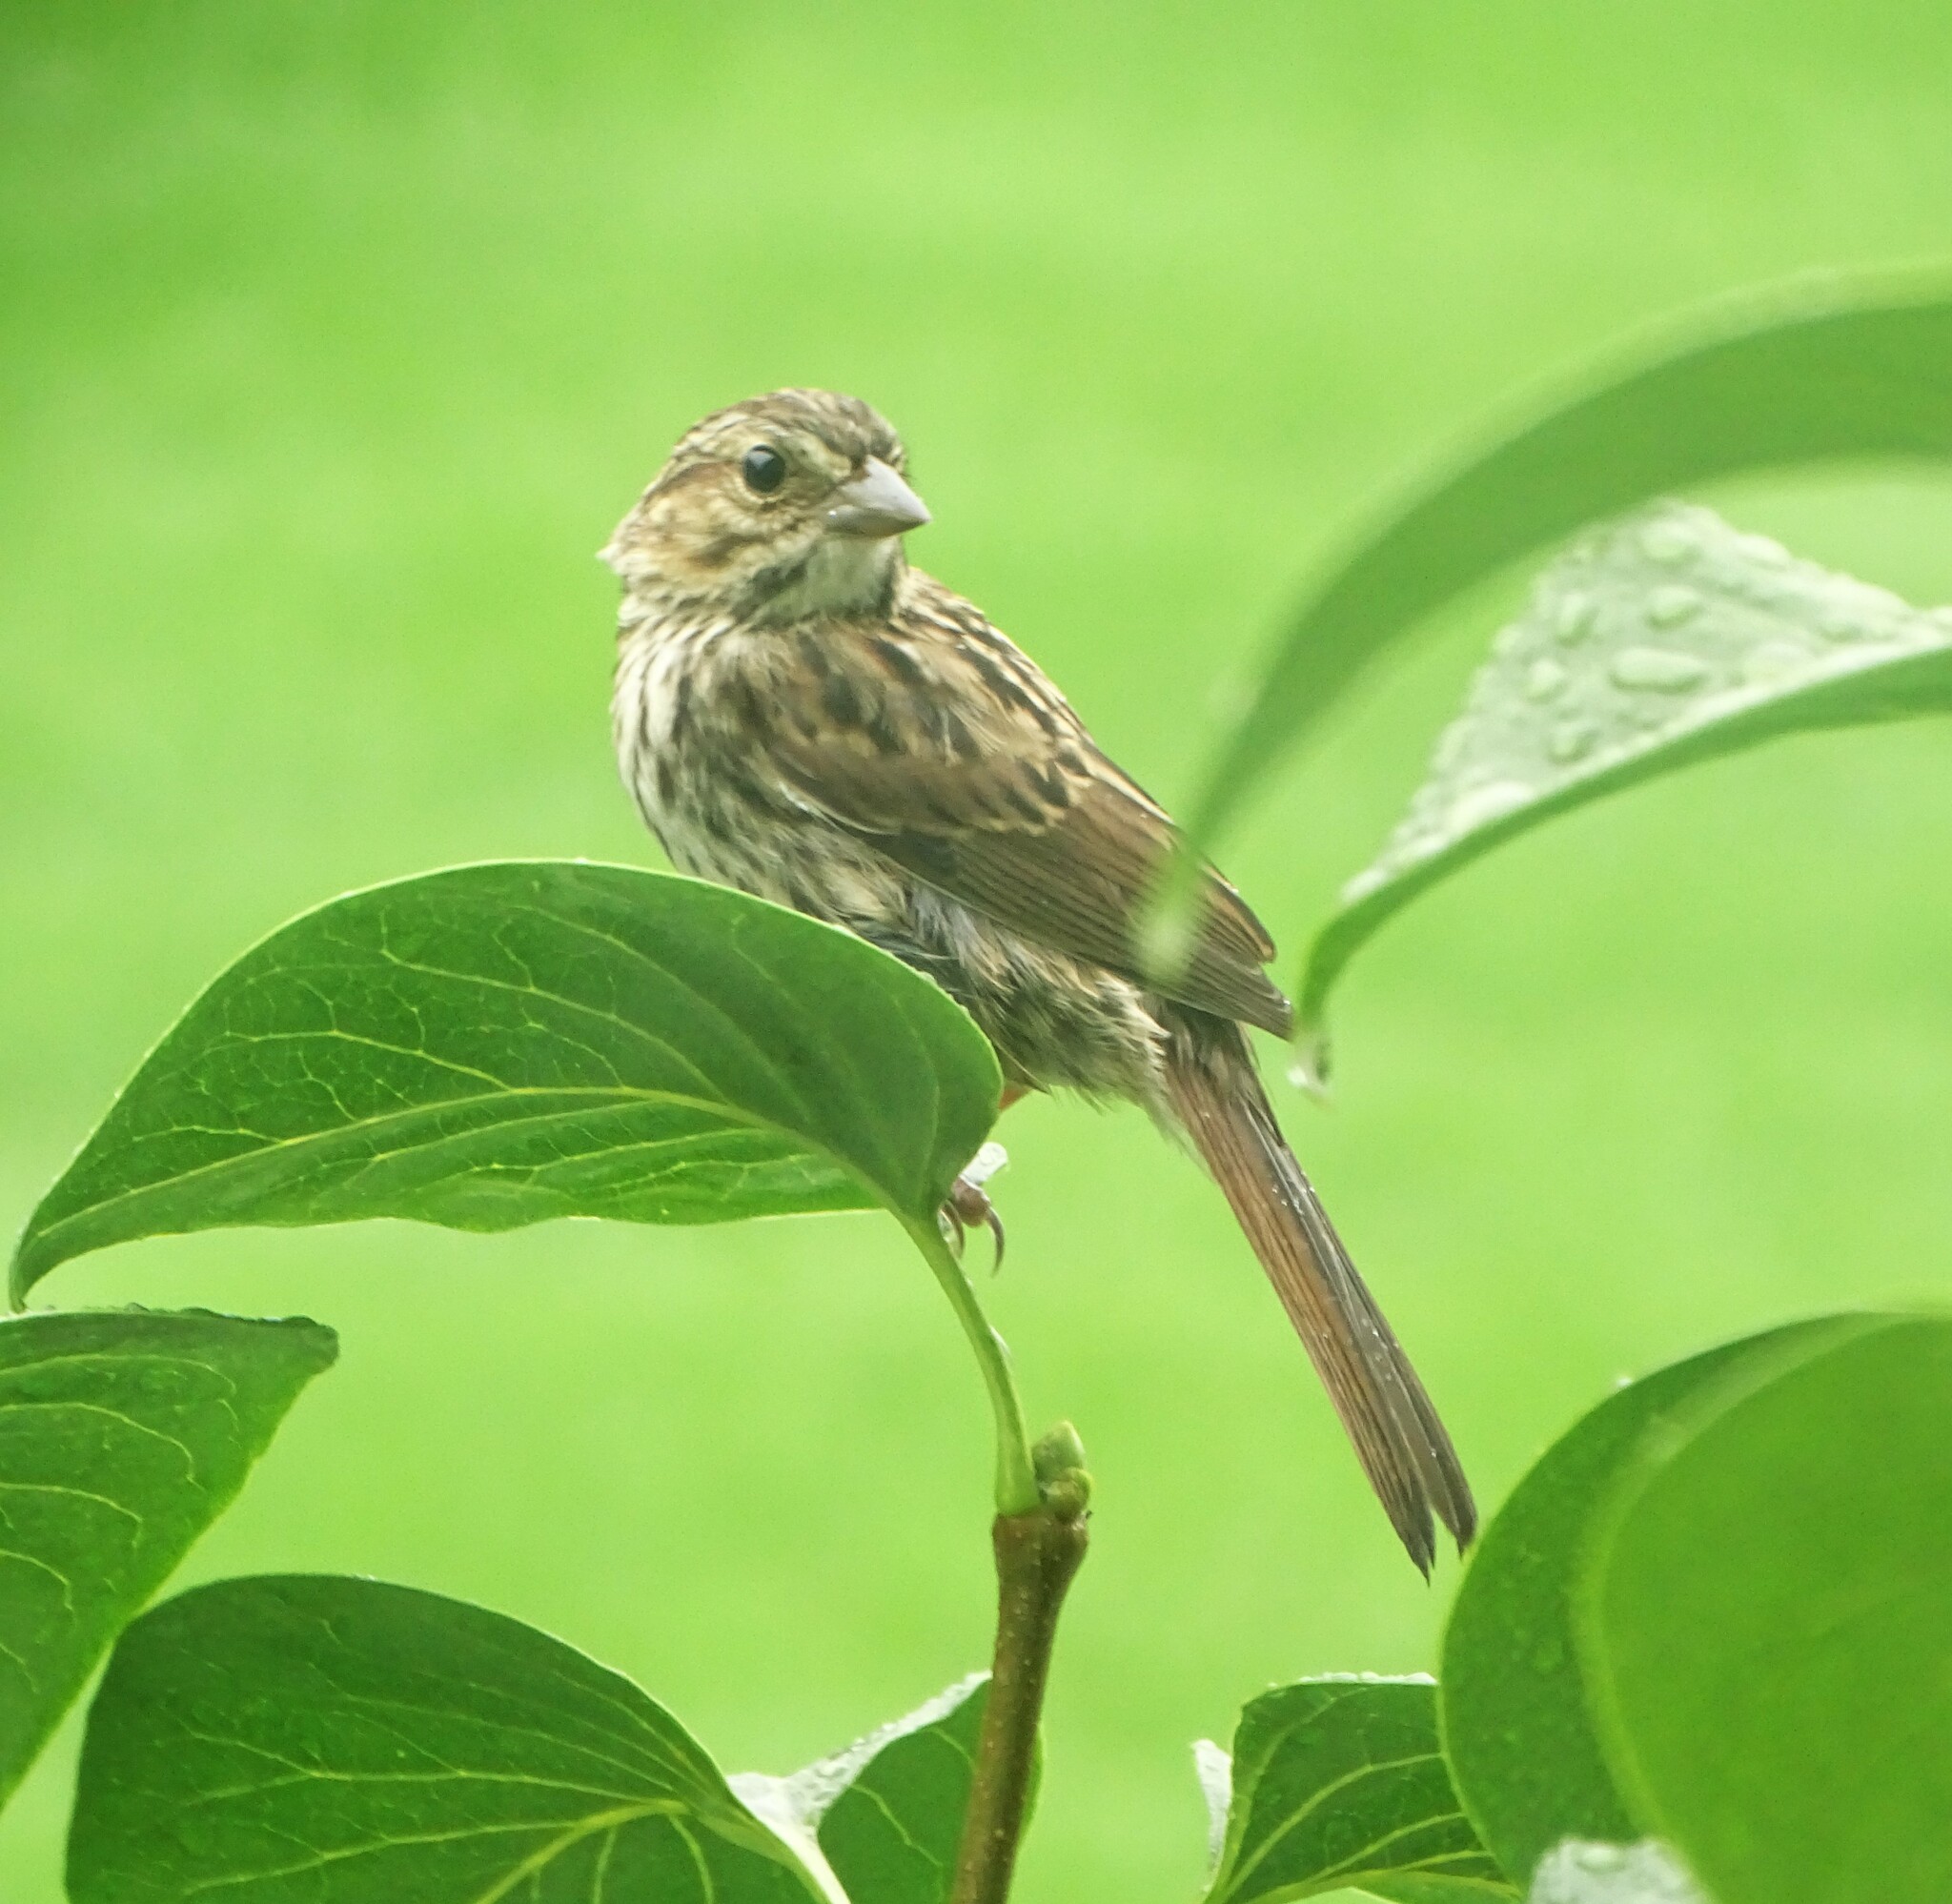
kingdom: Animalia
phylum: Chordata
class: Aves
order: Passeriformes
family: Passerellidae
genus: Melospiza
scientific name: Melospiza melodia
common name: Song sparrow
